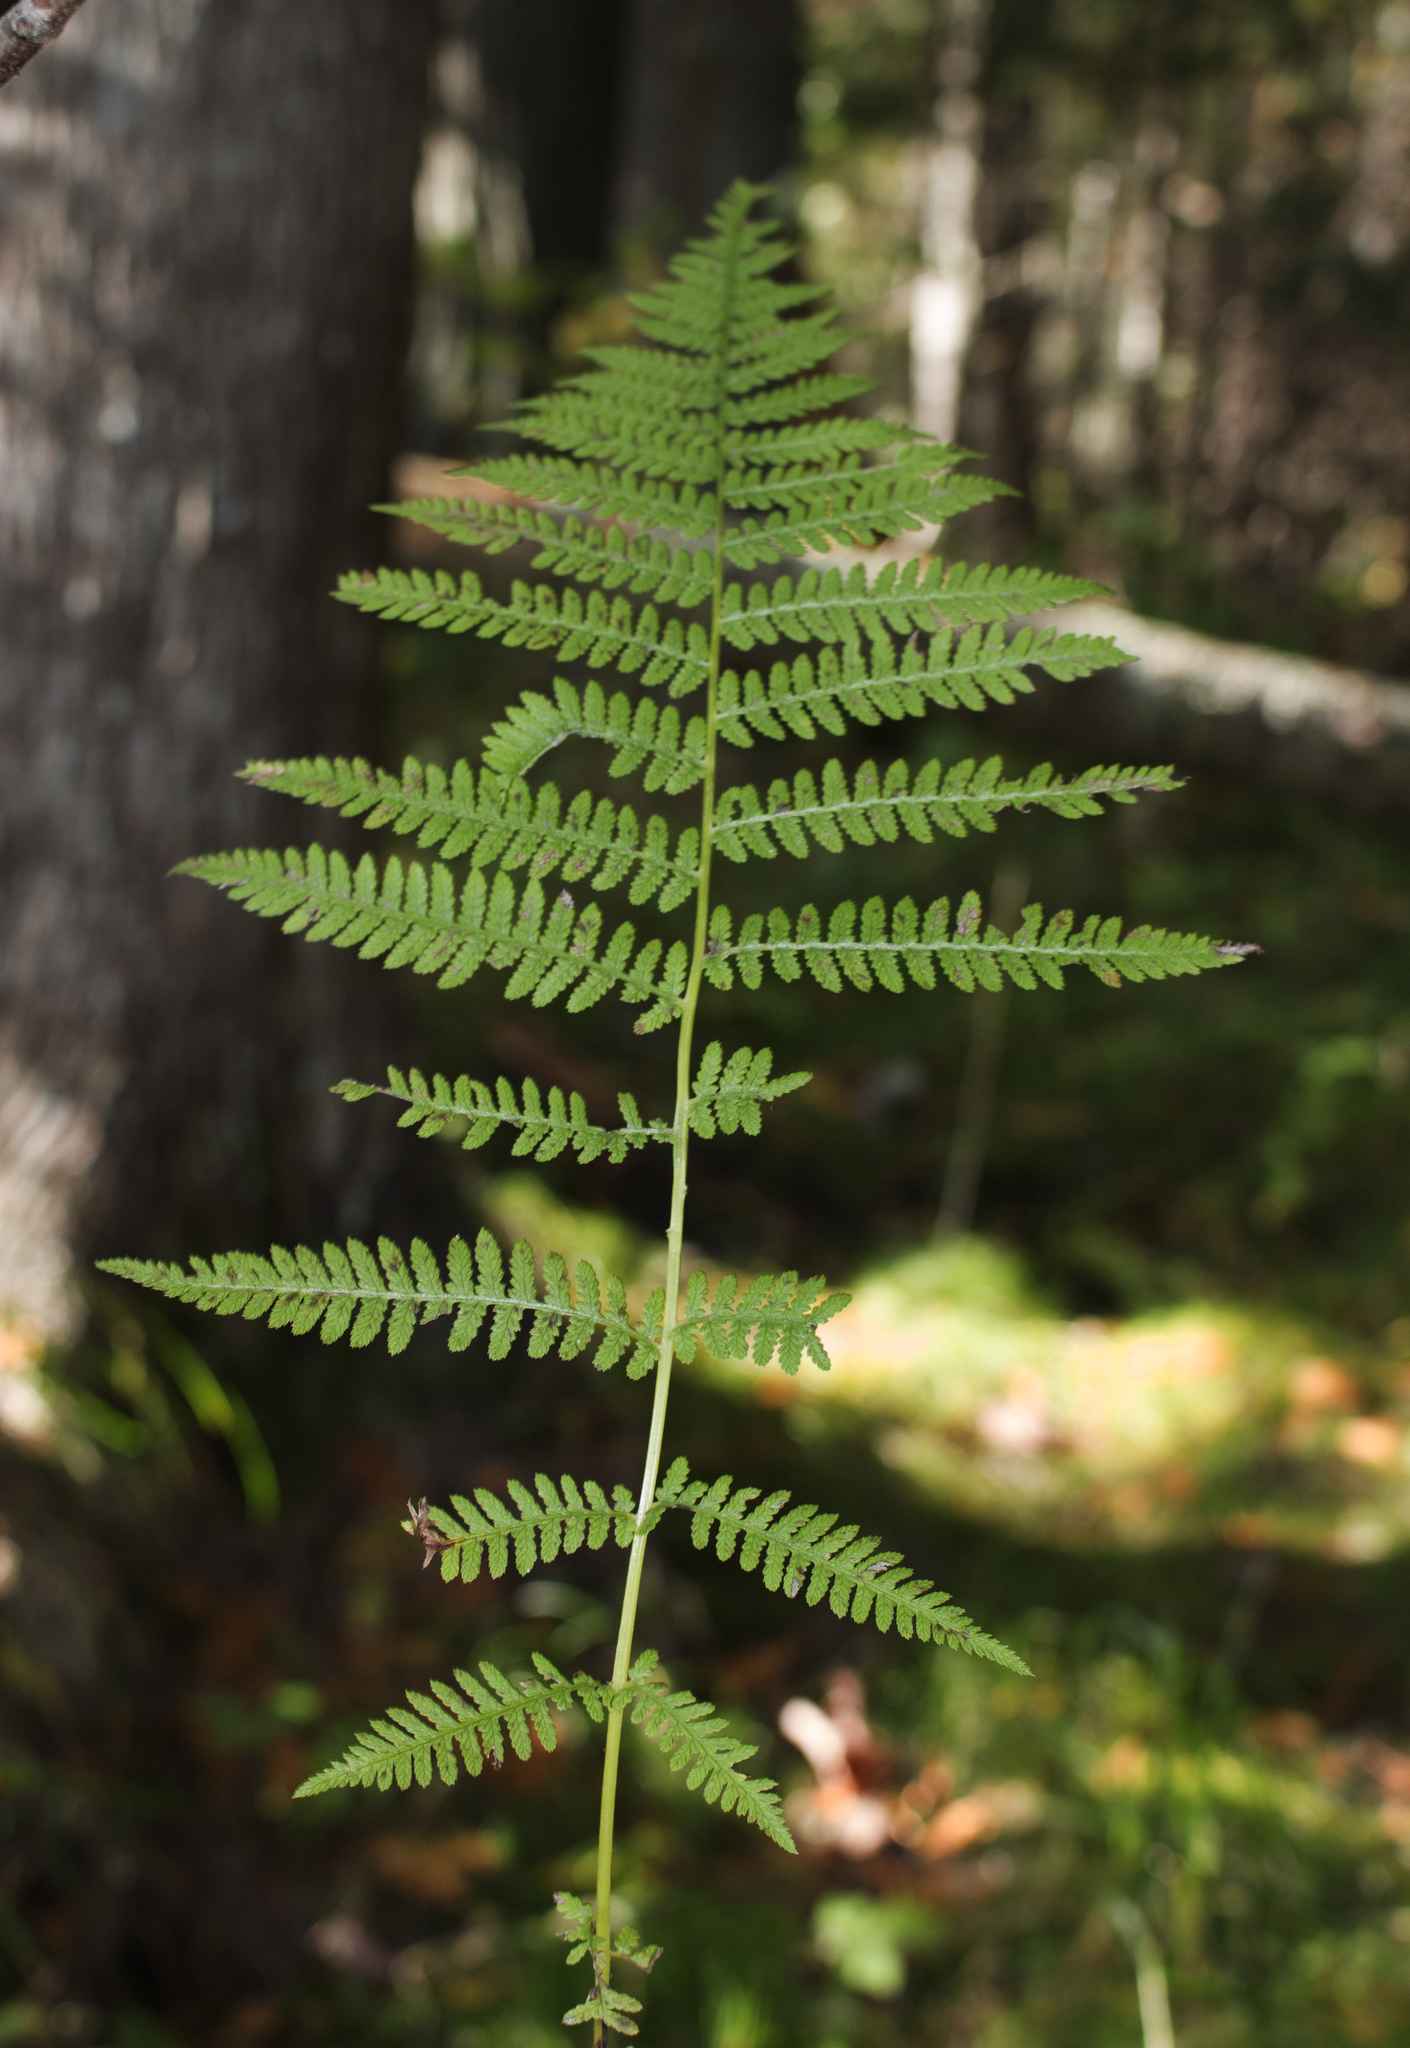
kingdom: Plantae
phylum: Tracheophyta
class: Polypodiopsida
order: Polypodiales
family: Athyriaceae
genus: Athyrium
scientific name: Athyrium angustum
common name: Northern lady fern
